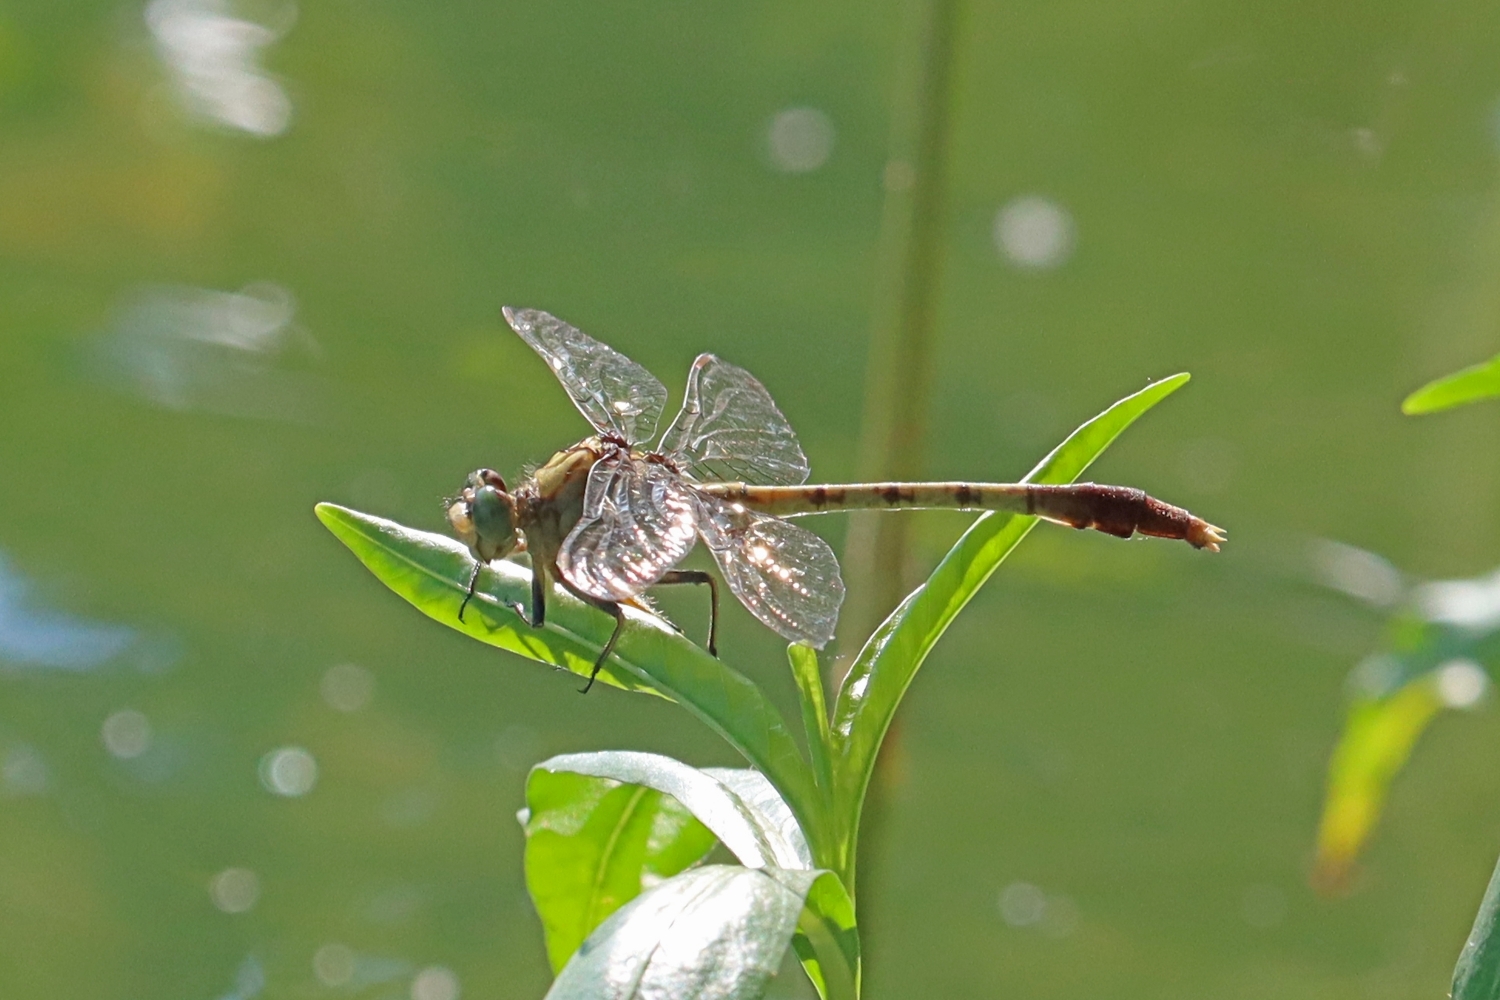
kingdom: Animalia
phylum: Arthropoda
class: Insecta
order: Odonata
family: Gomphidae
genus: Arigomphus
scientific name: Arigomphus submedianus
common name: Jade clubtail
